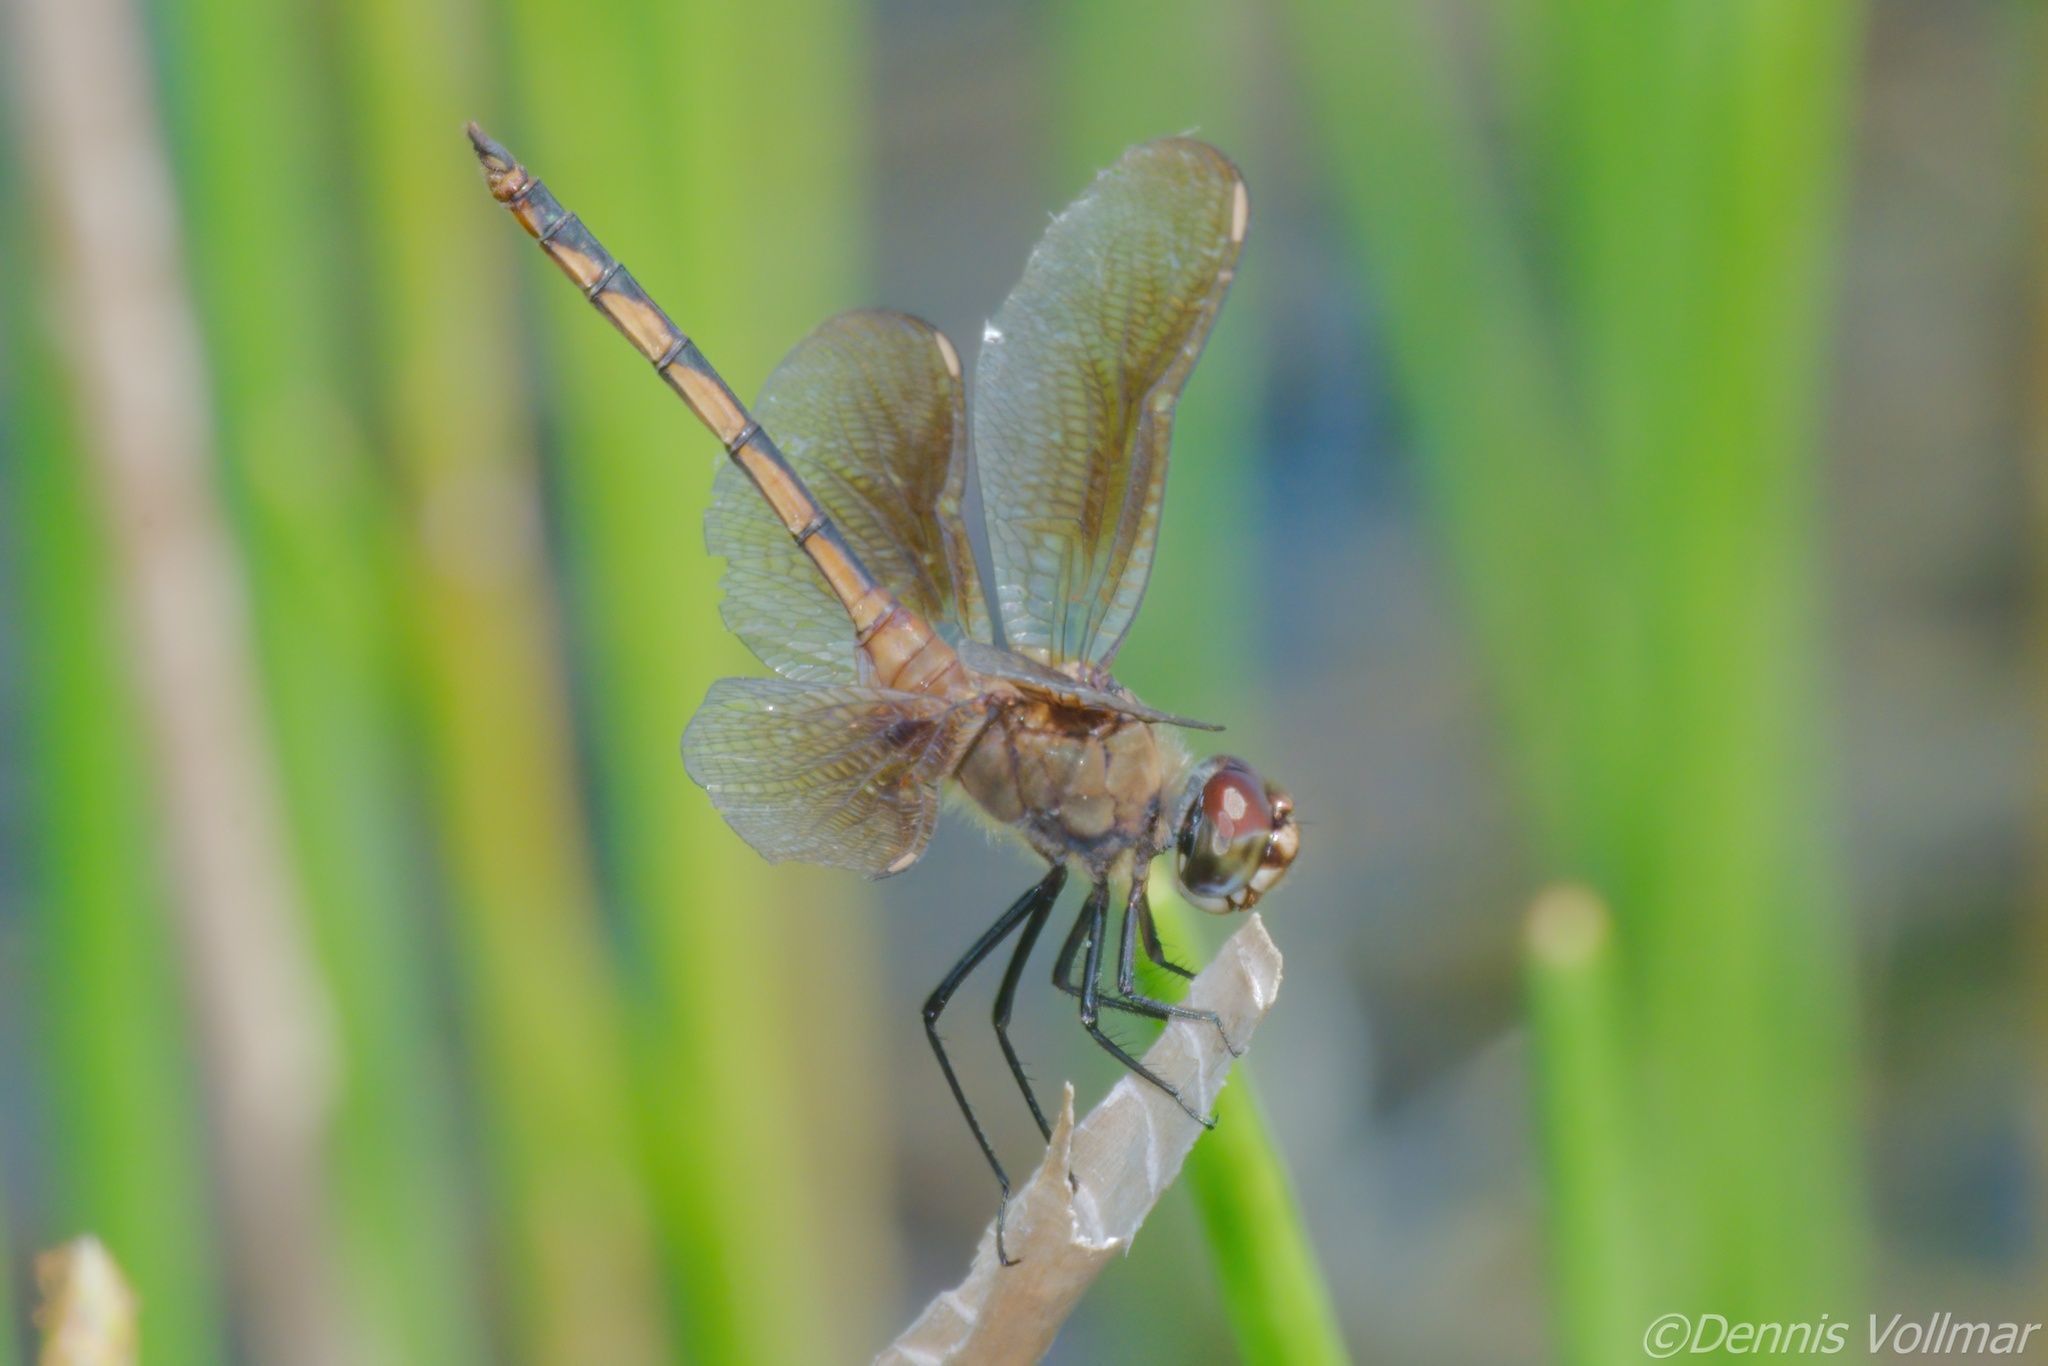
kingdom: Animalia
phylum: Arthropoda
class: Insecta
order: Odonata
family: Libellulidae
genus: Brachymesia
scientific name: Brachymesia herbida
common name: Tawny pennant
